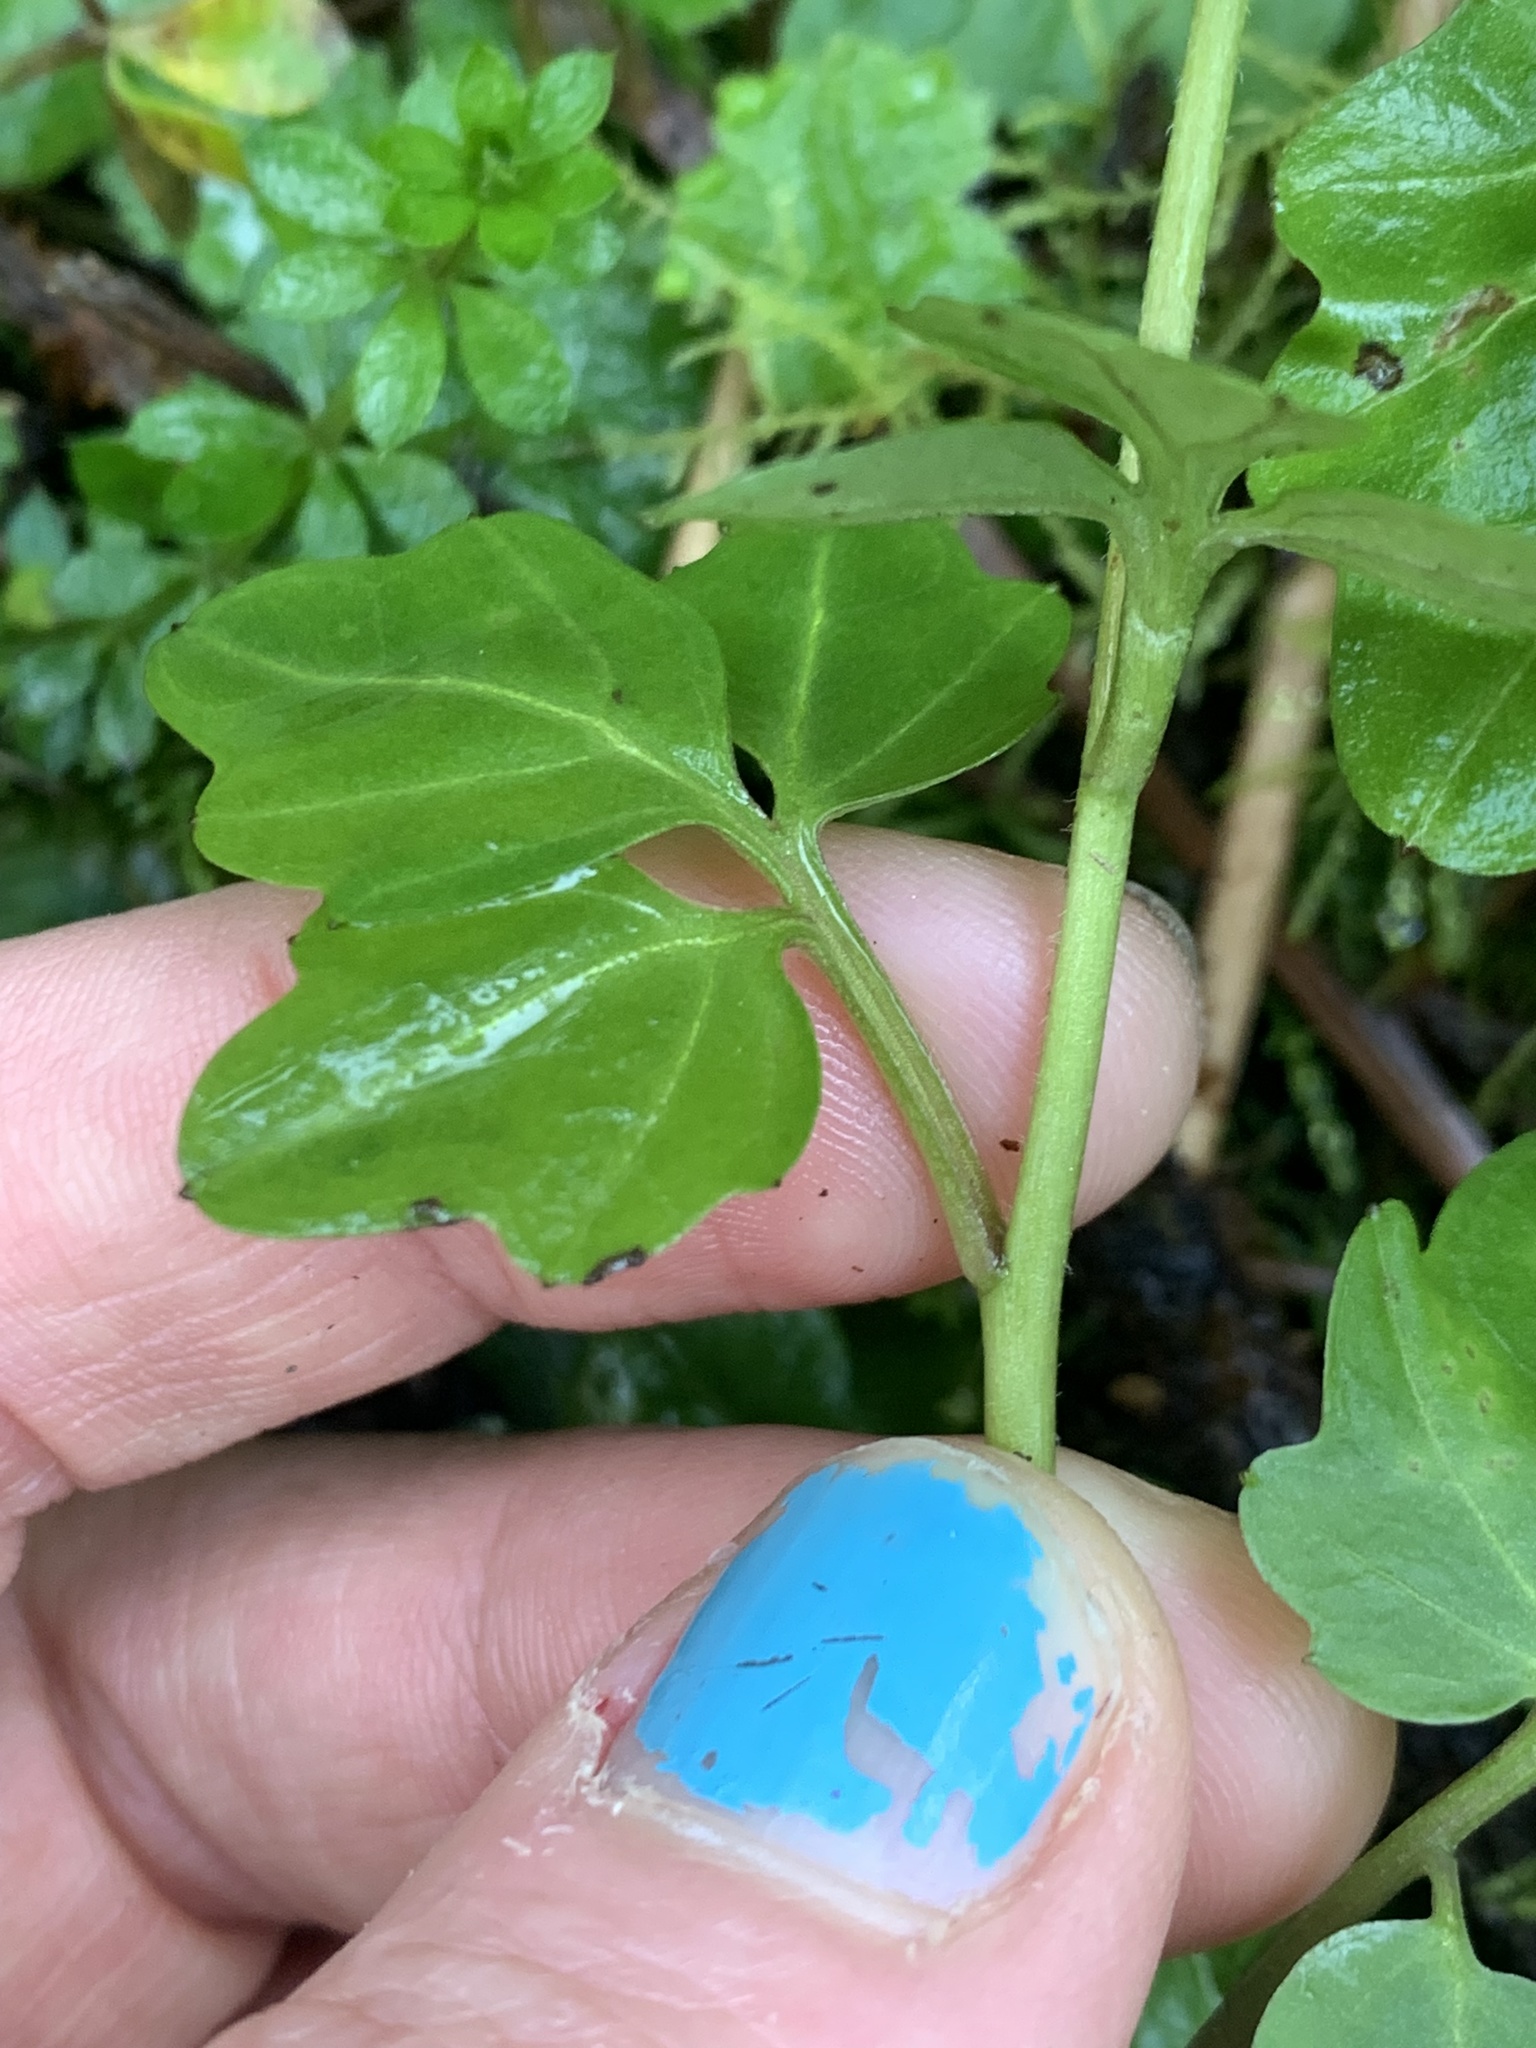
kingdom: Plantae
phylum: Tracheophyta
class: Magnoliopsida
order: Brassicales
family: Brassicaceae
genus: Cardamine
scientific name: Cardamine nuttallii
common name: Nuttall's toothwort
